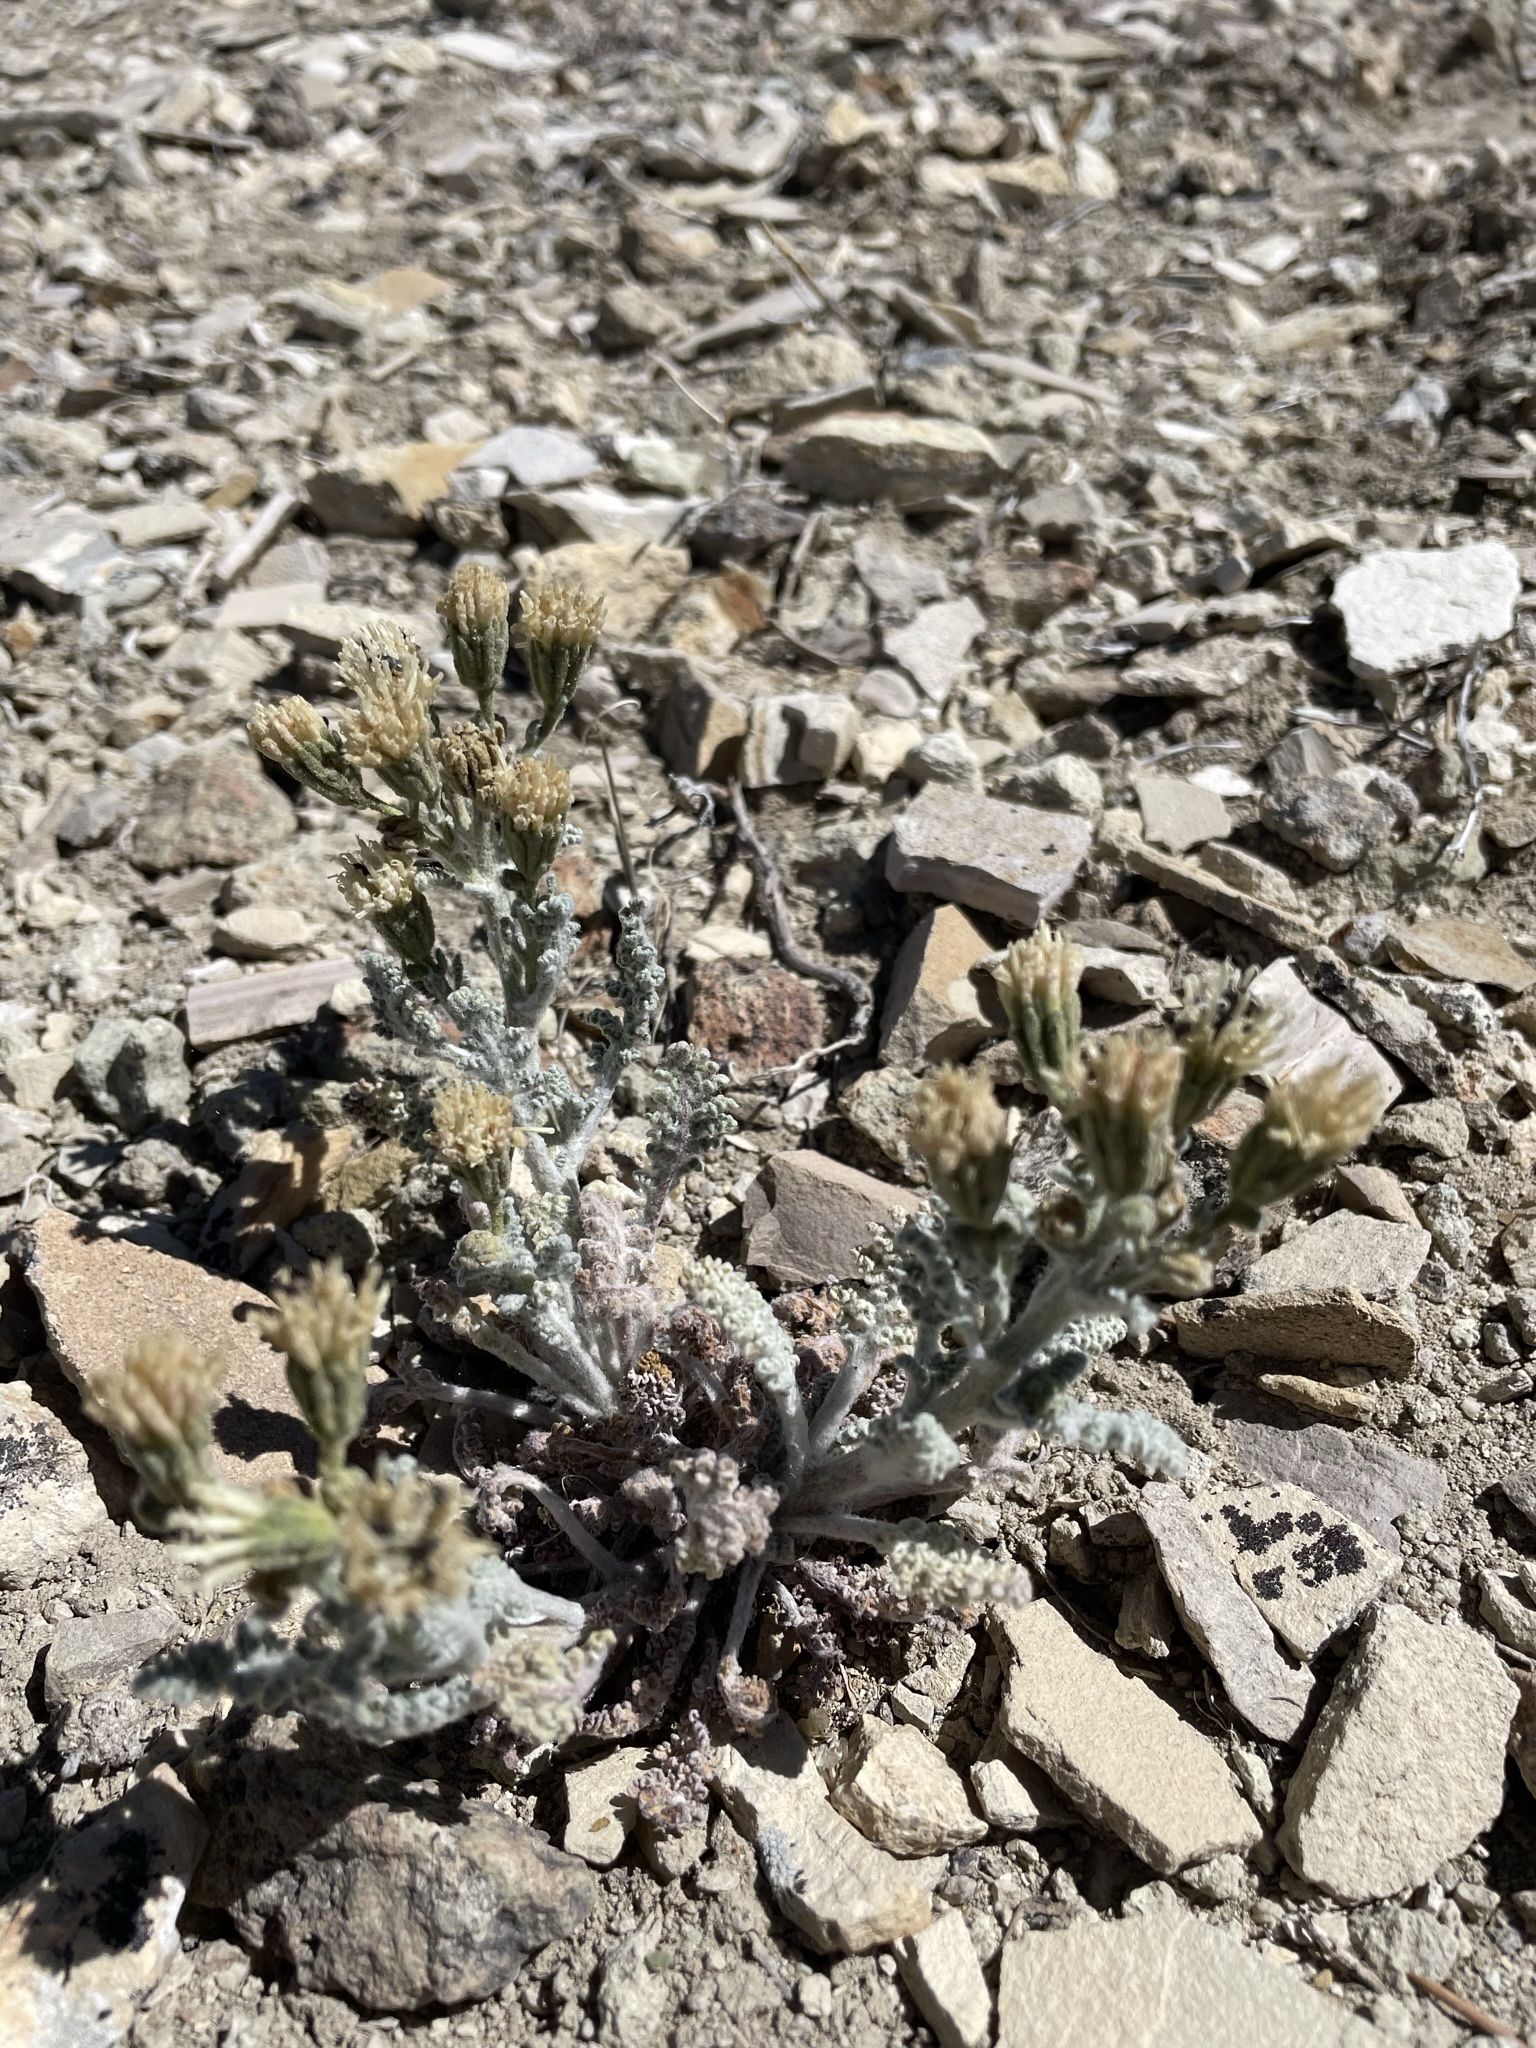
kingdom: Plantae
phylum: Tracheophyta
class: Magnoliopsida
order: Asterales
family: Asteraceae
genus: Chaenactis
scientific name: Chaenactis douglasii
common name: Hoary pincushion
